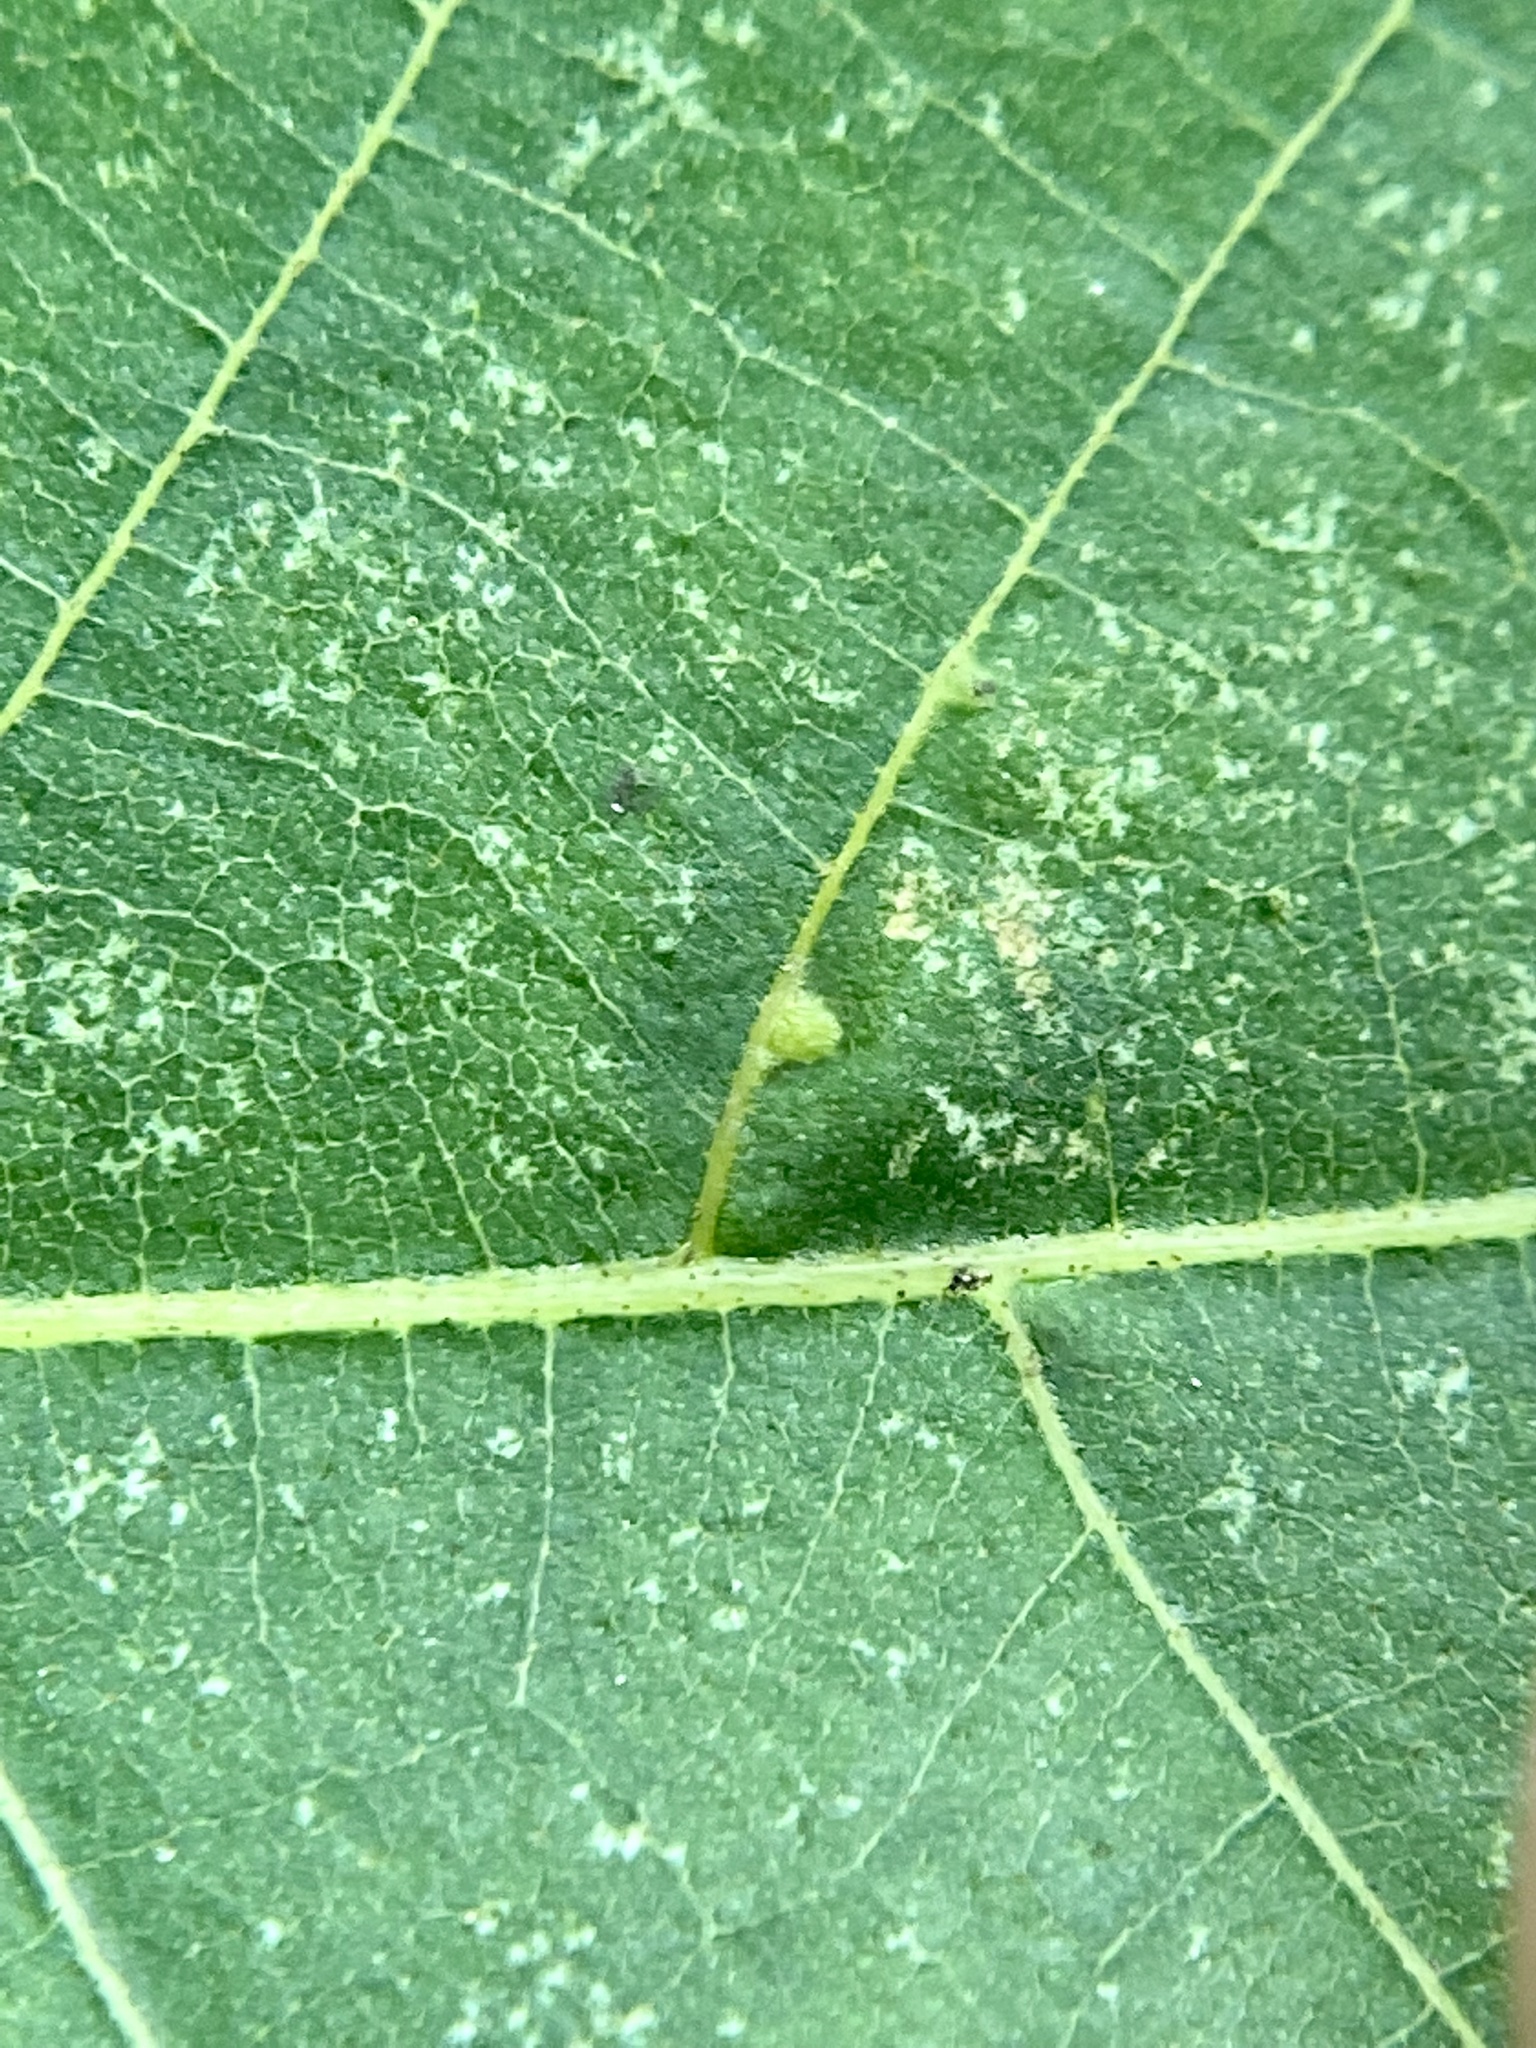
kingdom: Animalia
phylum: Arthropoda
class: Insecta
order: Diptera
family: Cecidomyiidae
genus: Caryomyia
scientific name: Caryomyia persicoides
